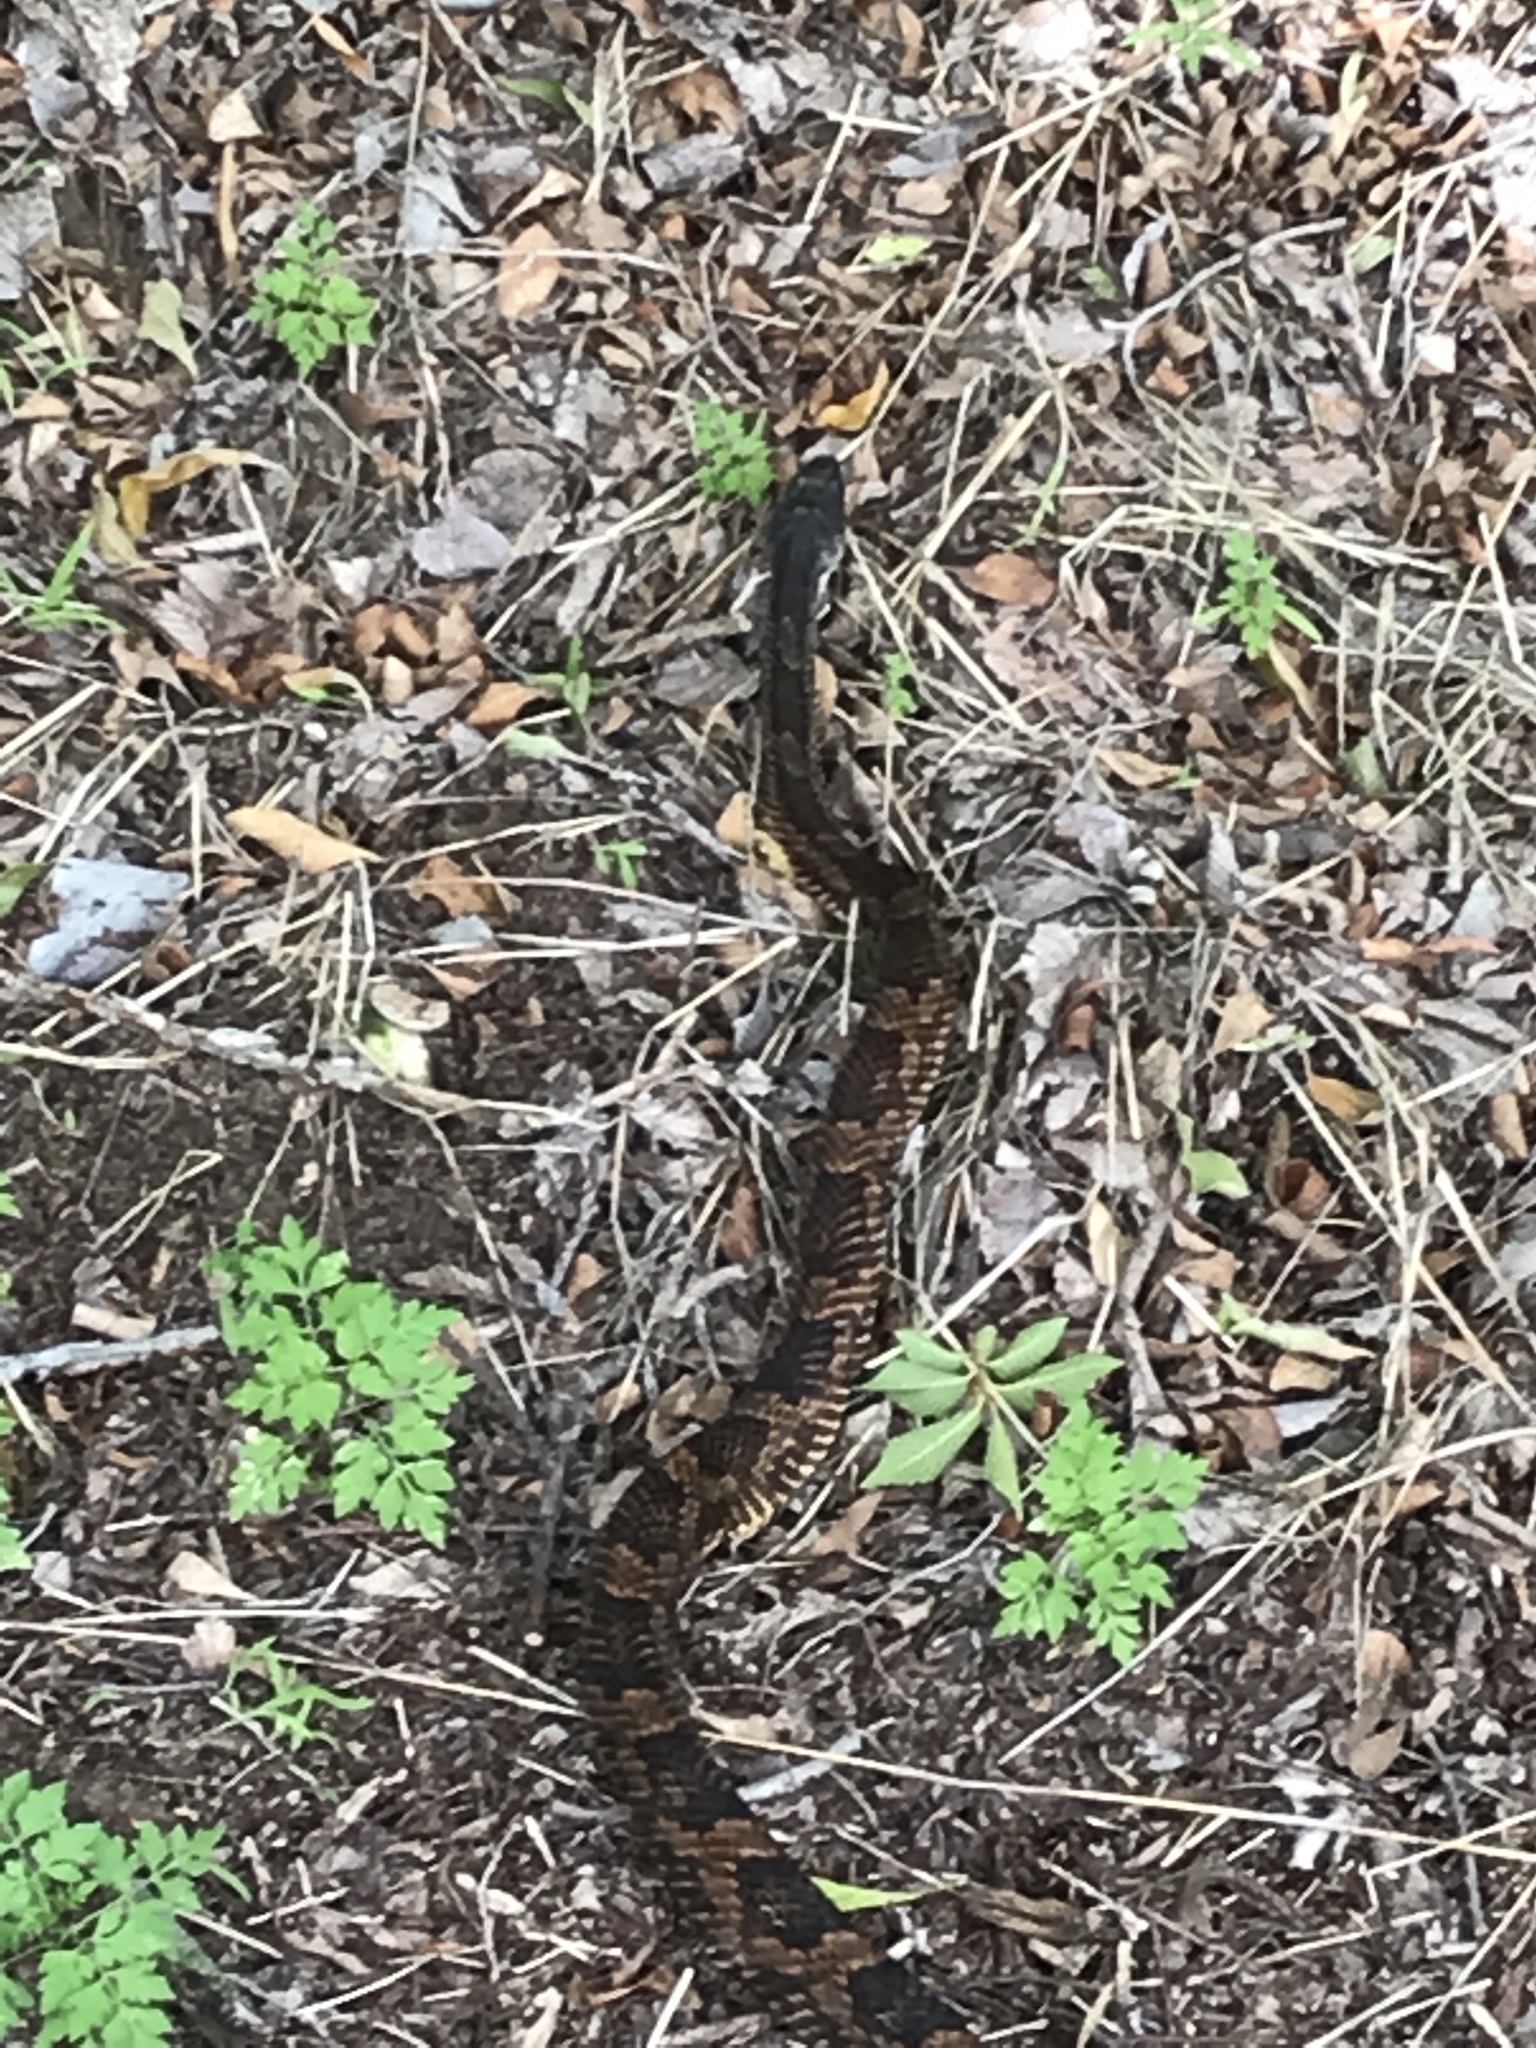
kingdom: Animalia
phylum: Chordata
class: Squamata
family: Colubridae
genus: Pantherophis
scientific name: Pantherophis obsoletus
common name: Black rat snake
